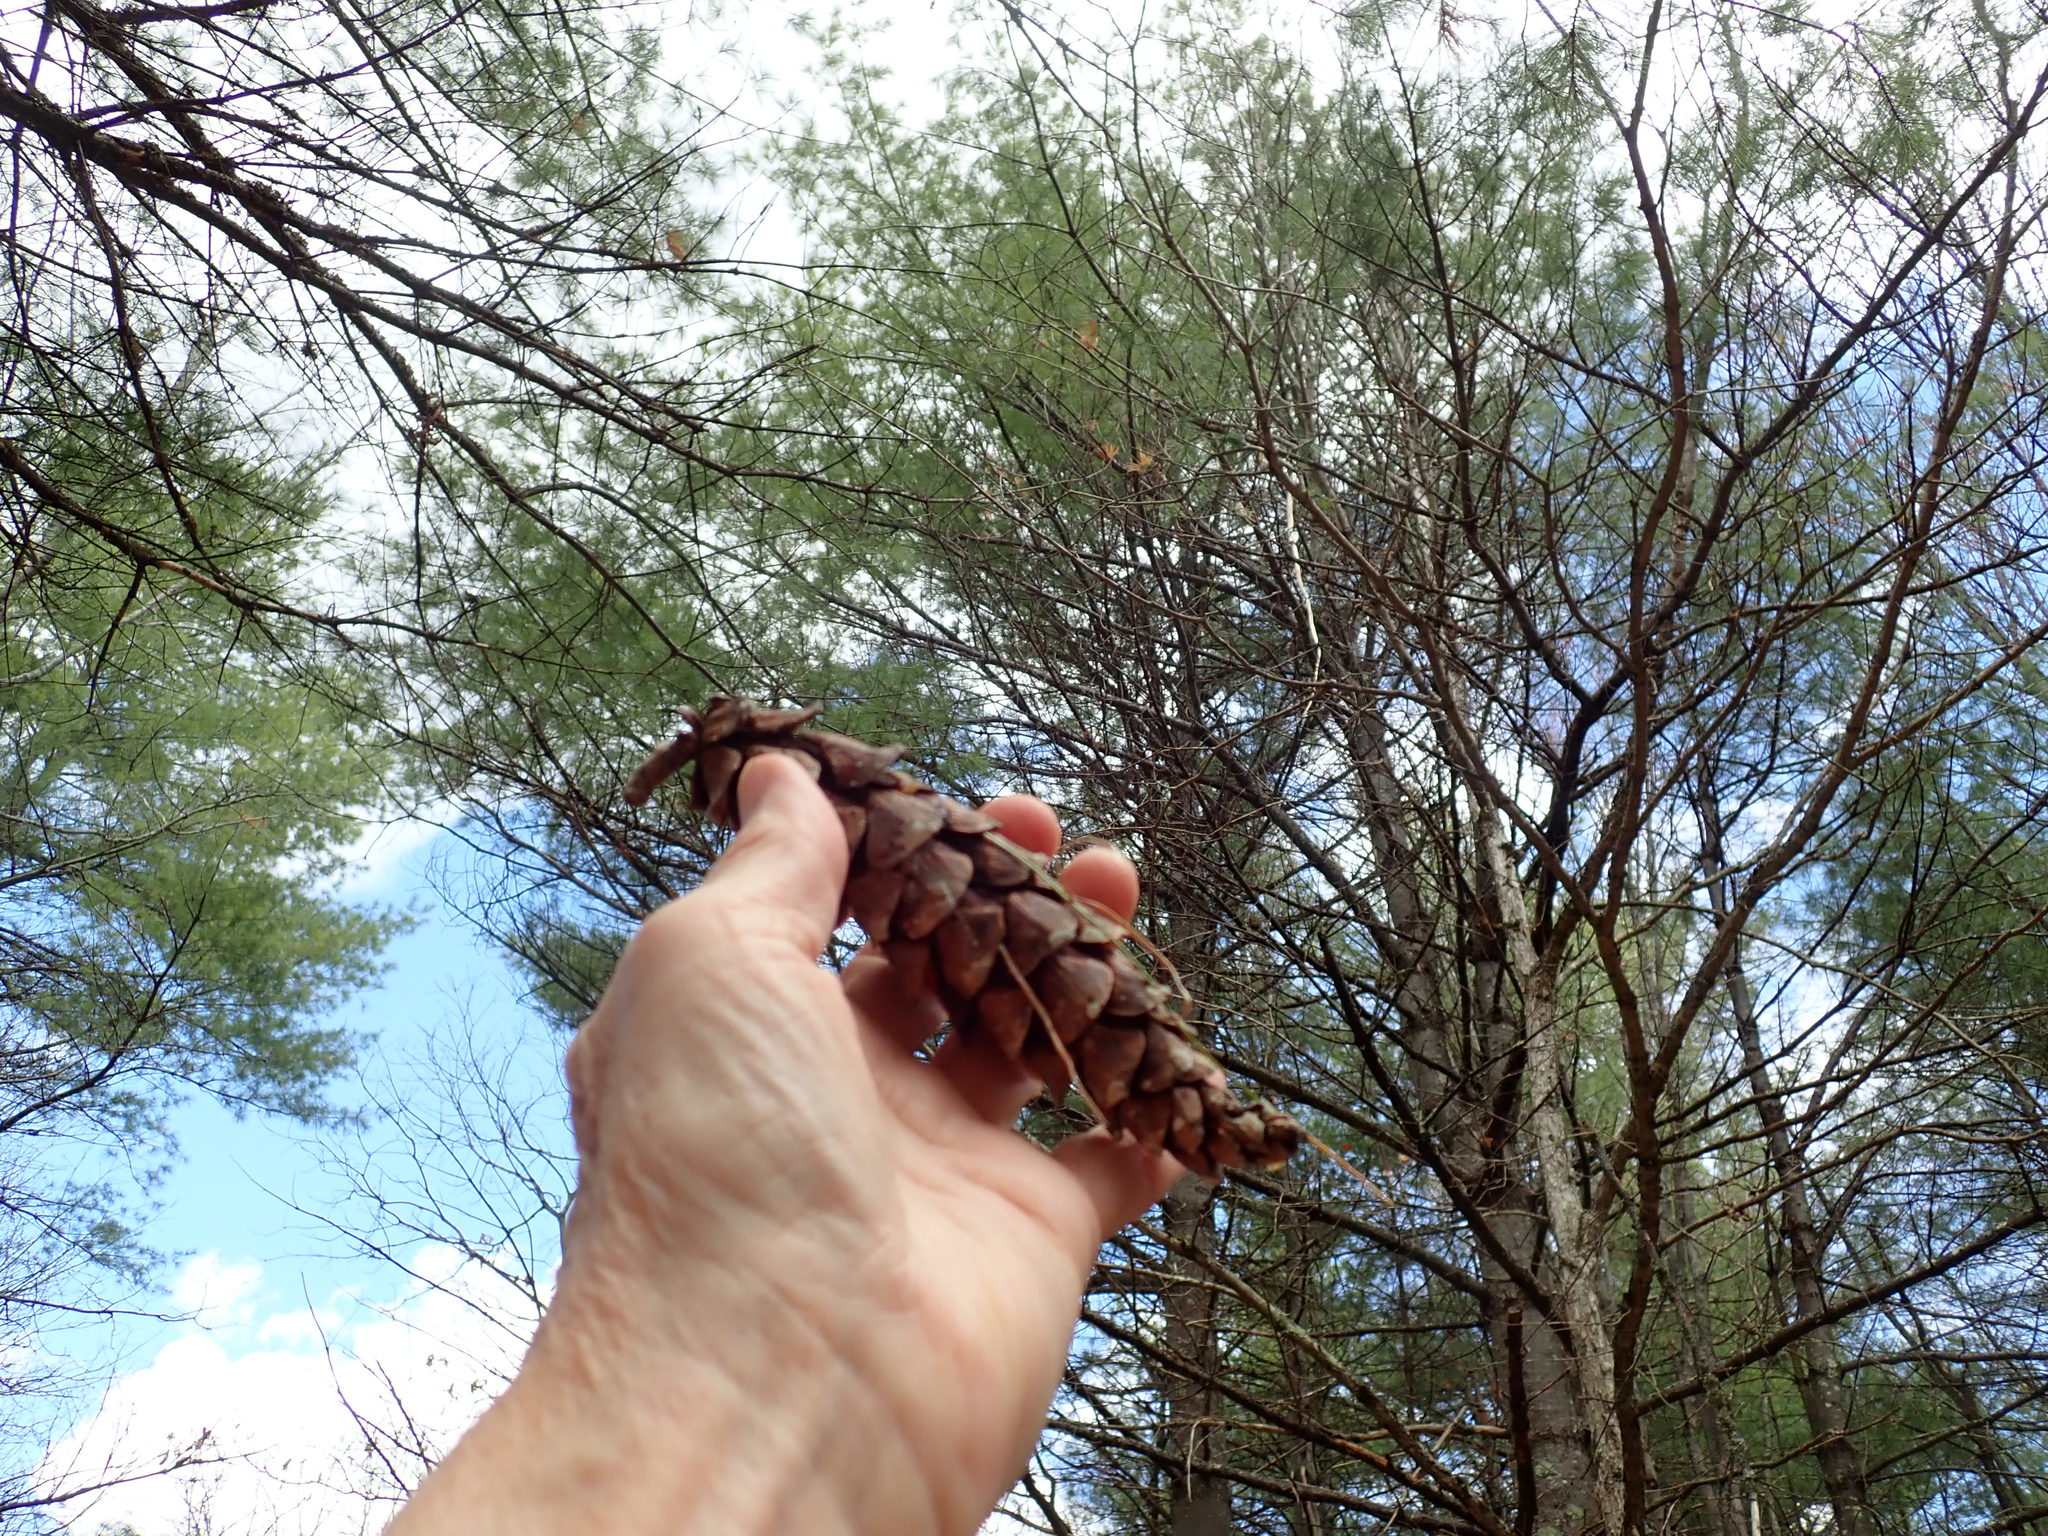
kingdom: Plantae
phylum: Tracheophyta
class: Pinopsida
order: Pinales
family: Pinaceae
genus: Pinus
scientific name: Pinus strobus
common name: Weymouth pine
